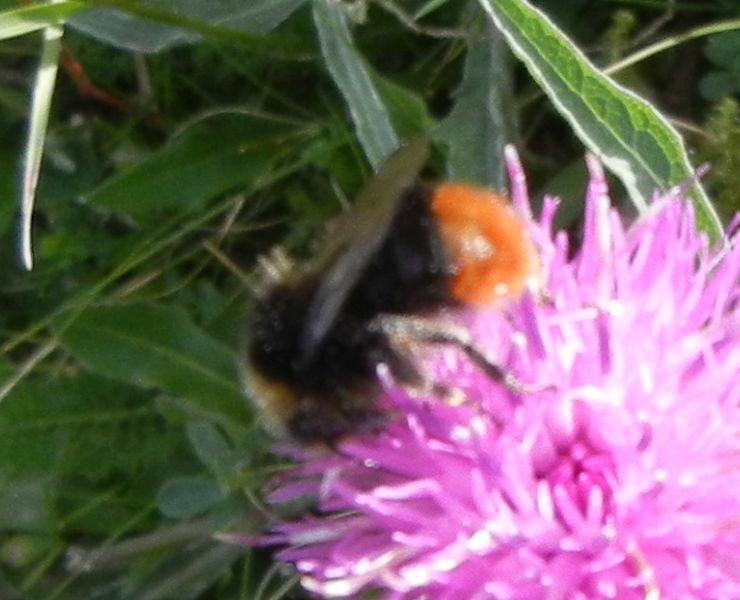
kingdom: Animalia
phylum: Arthropoda
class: Insecta
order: Hymenoptera
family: Apidae
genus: Bombus
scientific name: Bombus lapidarius
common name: Large red-tailed humble-bee
